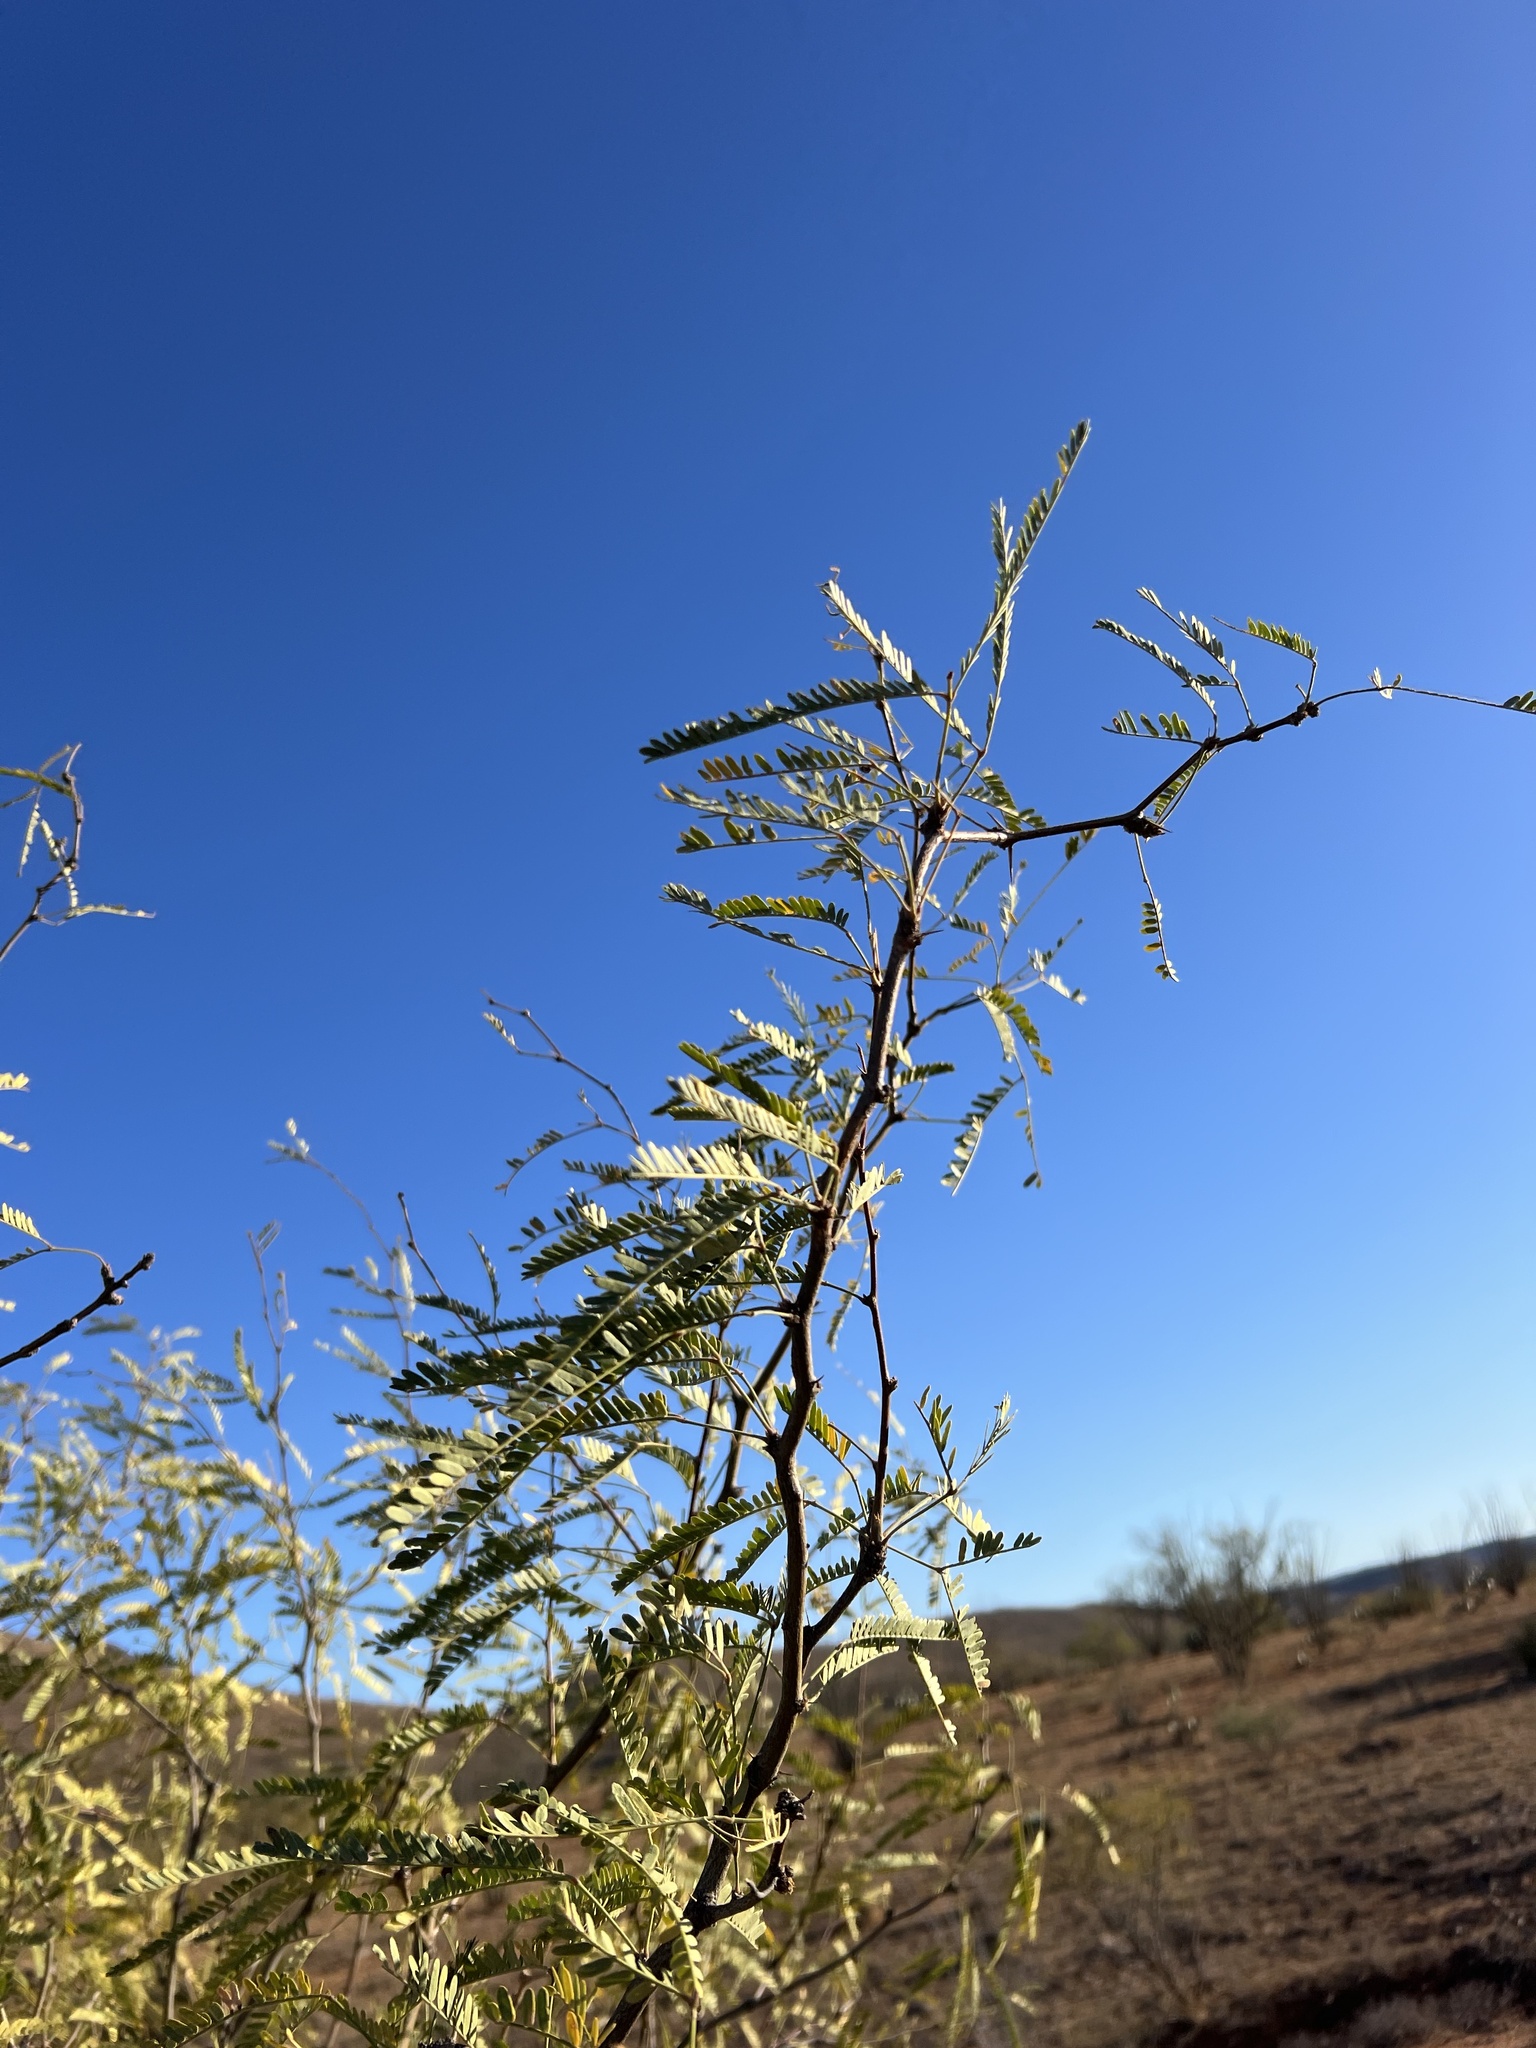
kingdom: Plantae
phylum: Tracheophyta
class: Magnoliopsida
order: Fabales
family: Fabaceae
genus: Prosopis
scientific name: Prosopis velutina
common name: Velvet mesquite
